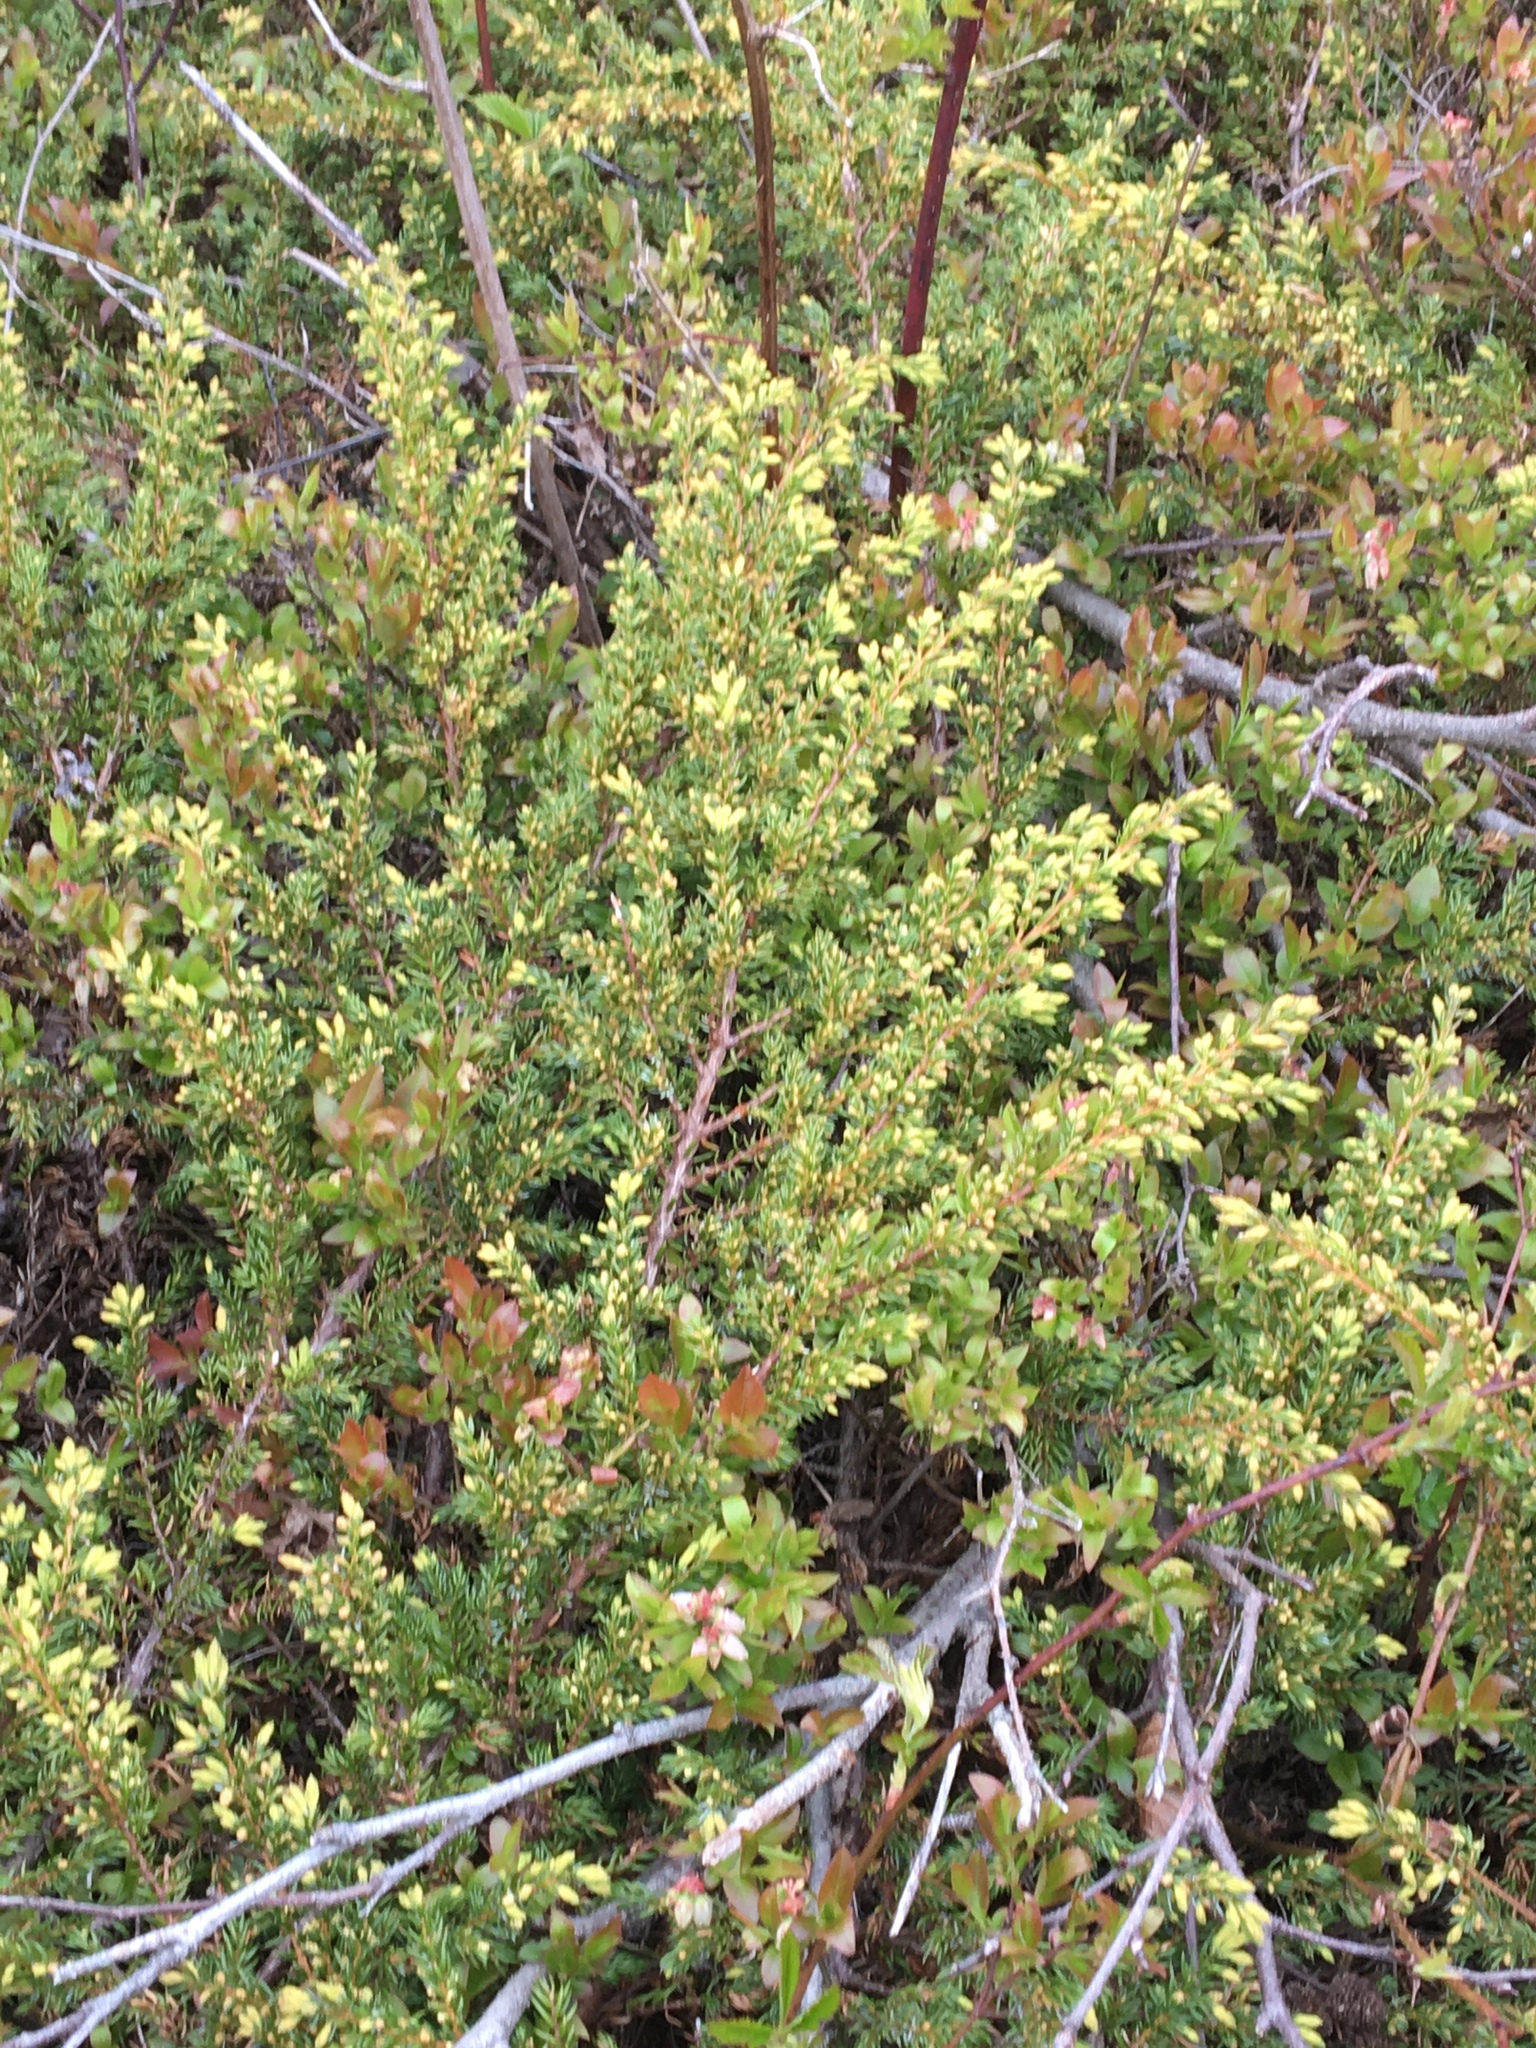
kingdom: Plantae
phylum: Tracheophyta
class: Pinopsida
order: Pinales
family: Cupressaceae
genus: Juniperus
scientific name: Juniperus communis
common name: Common juniper
